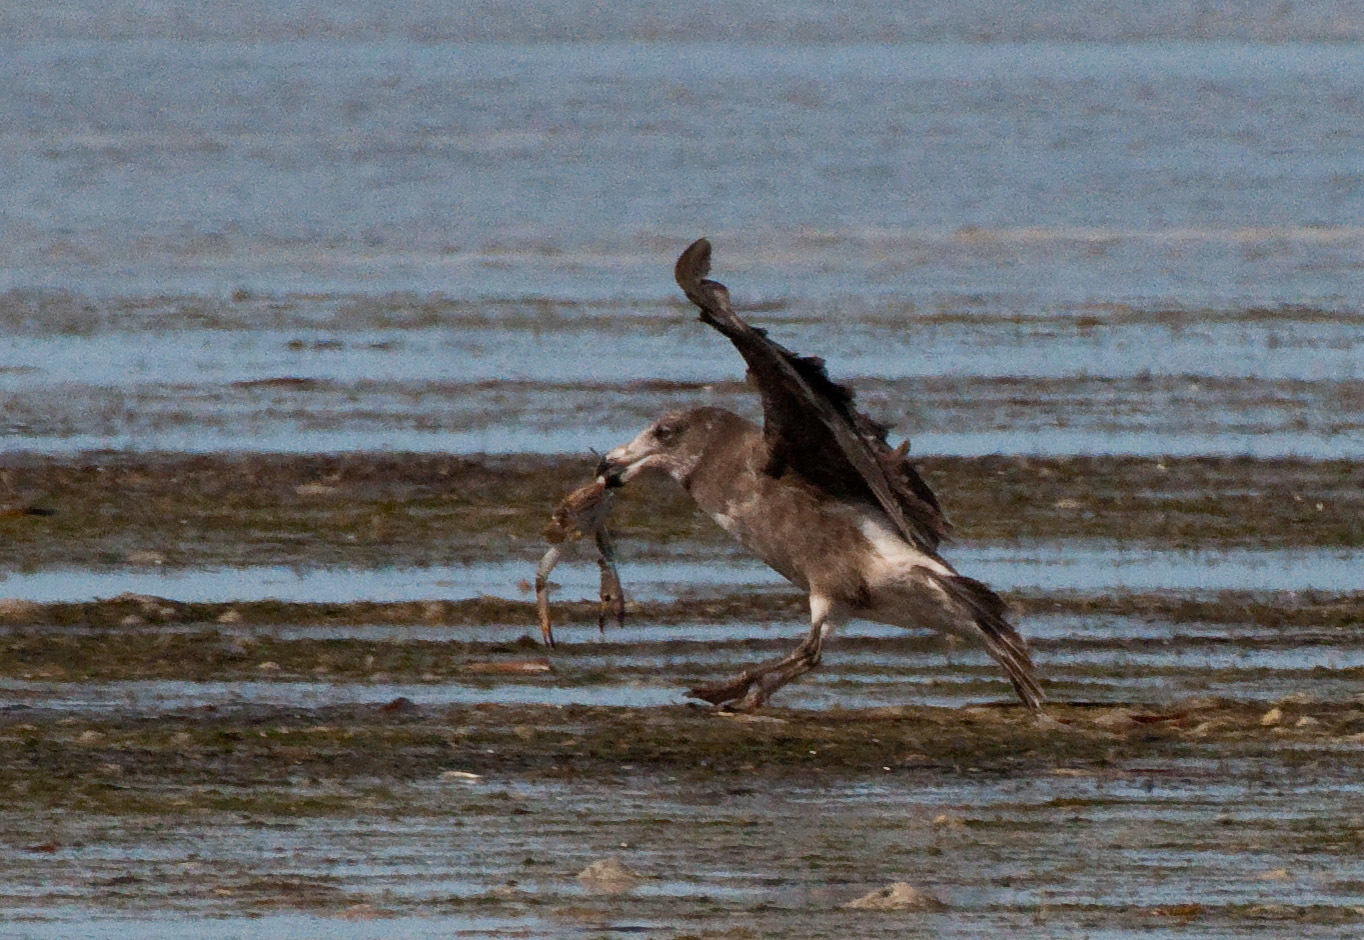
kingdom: Animalia
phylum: Chordata
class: Aves
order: Charadriiformes
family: Laridae
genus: Larus
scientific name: Larus pacificus
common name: Pacific gull
